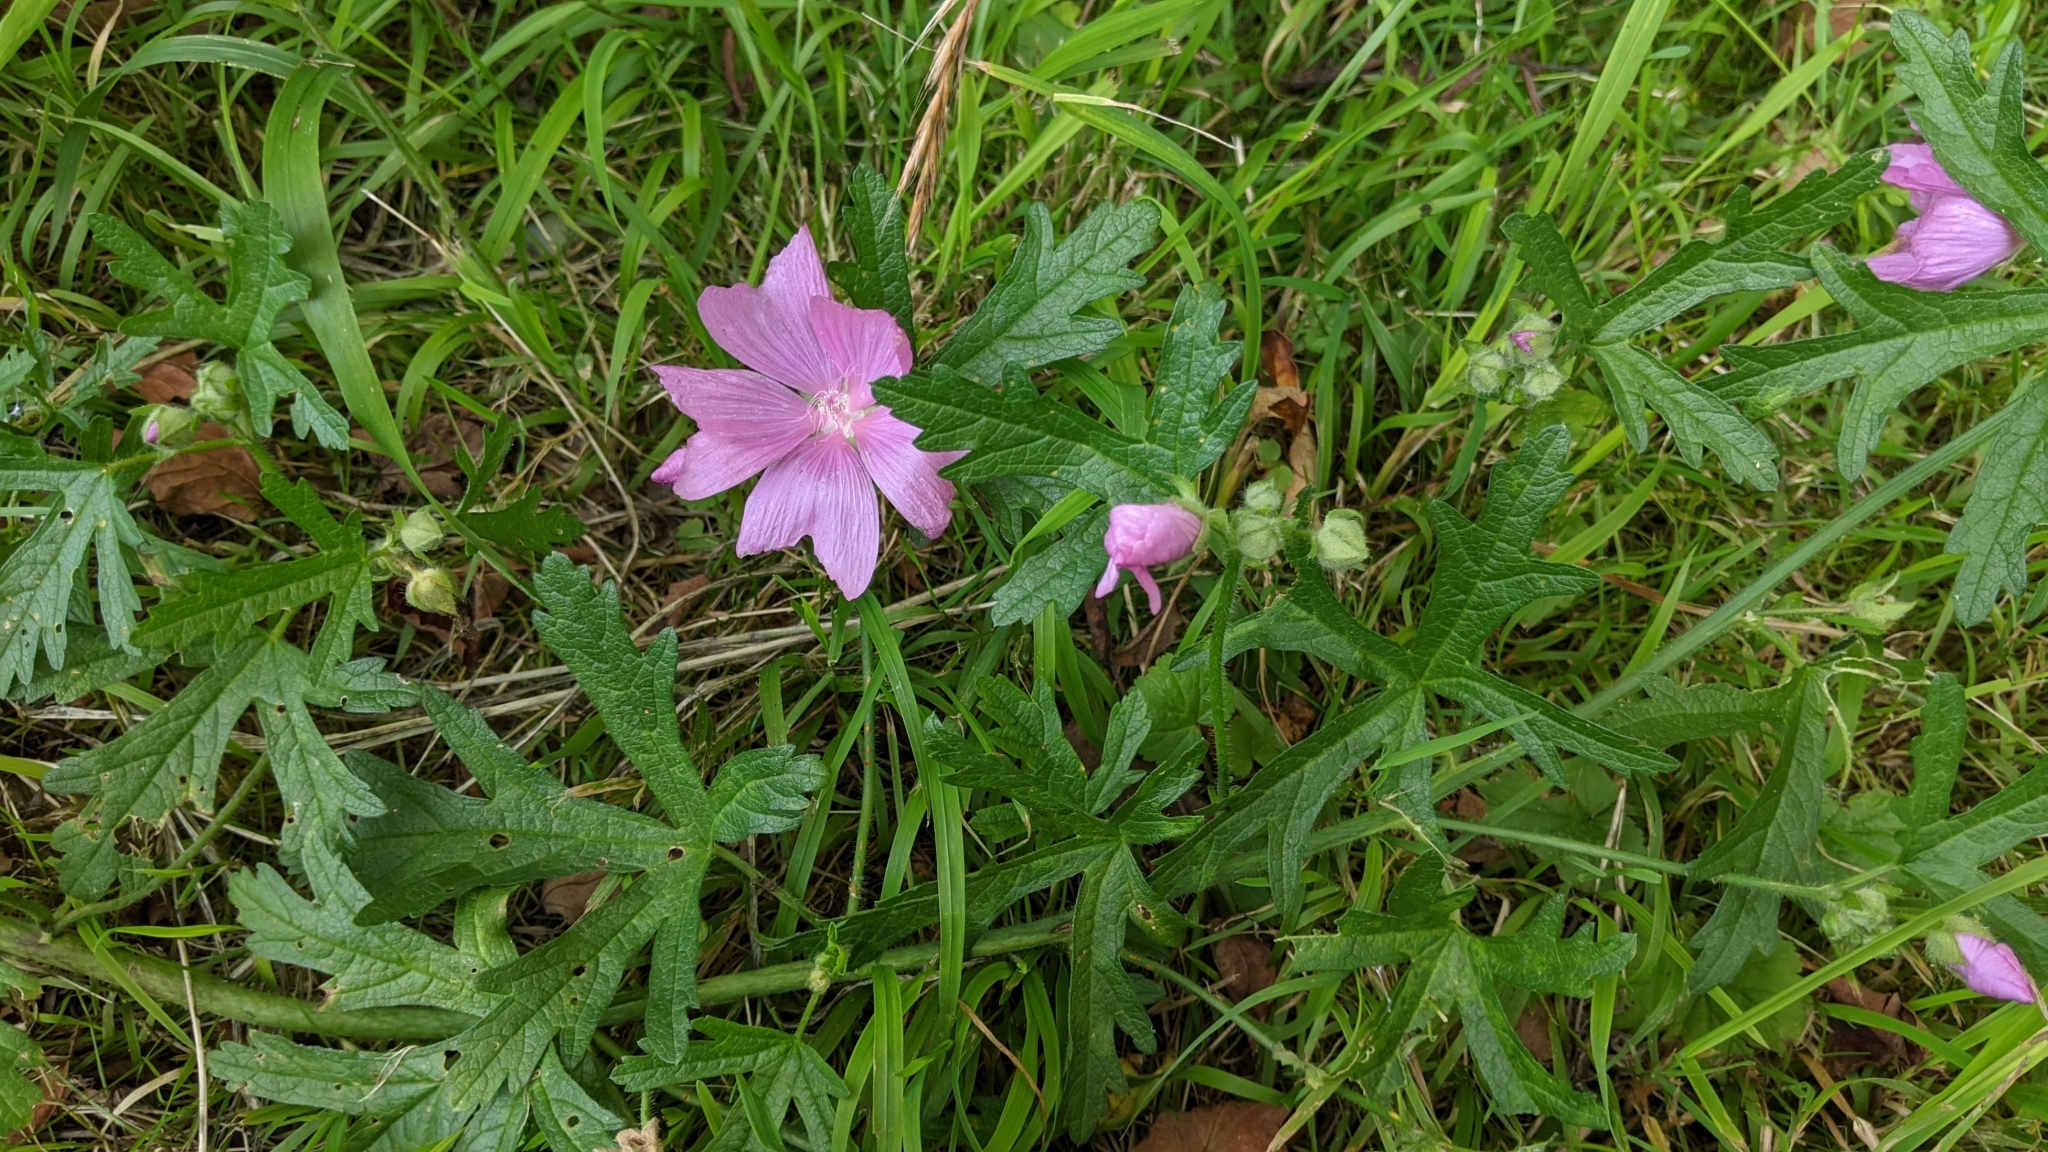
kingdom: Plantae
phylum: Tracheophyta
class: Magnoliopsida
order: Malvales
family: Malvaceae
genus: Malva
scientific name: Malva moschata
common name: Musk mallow
